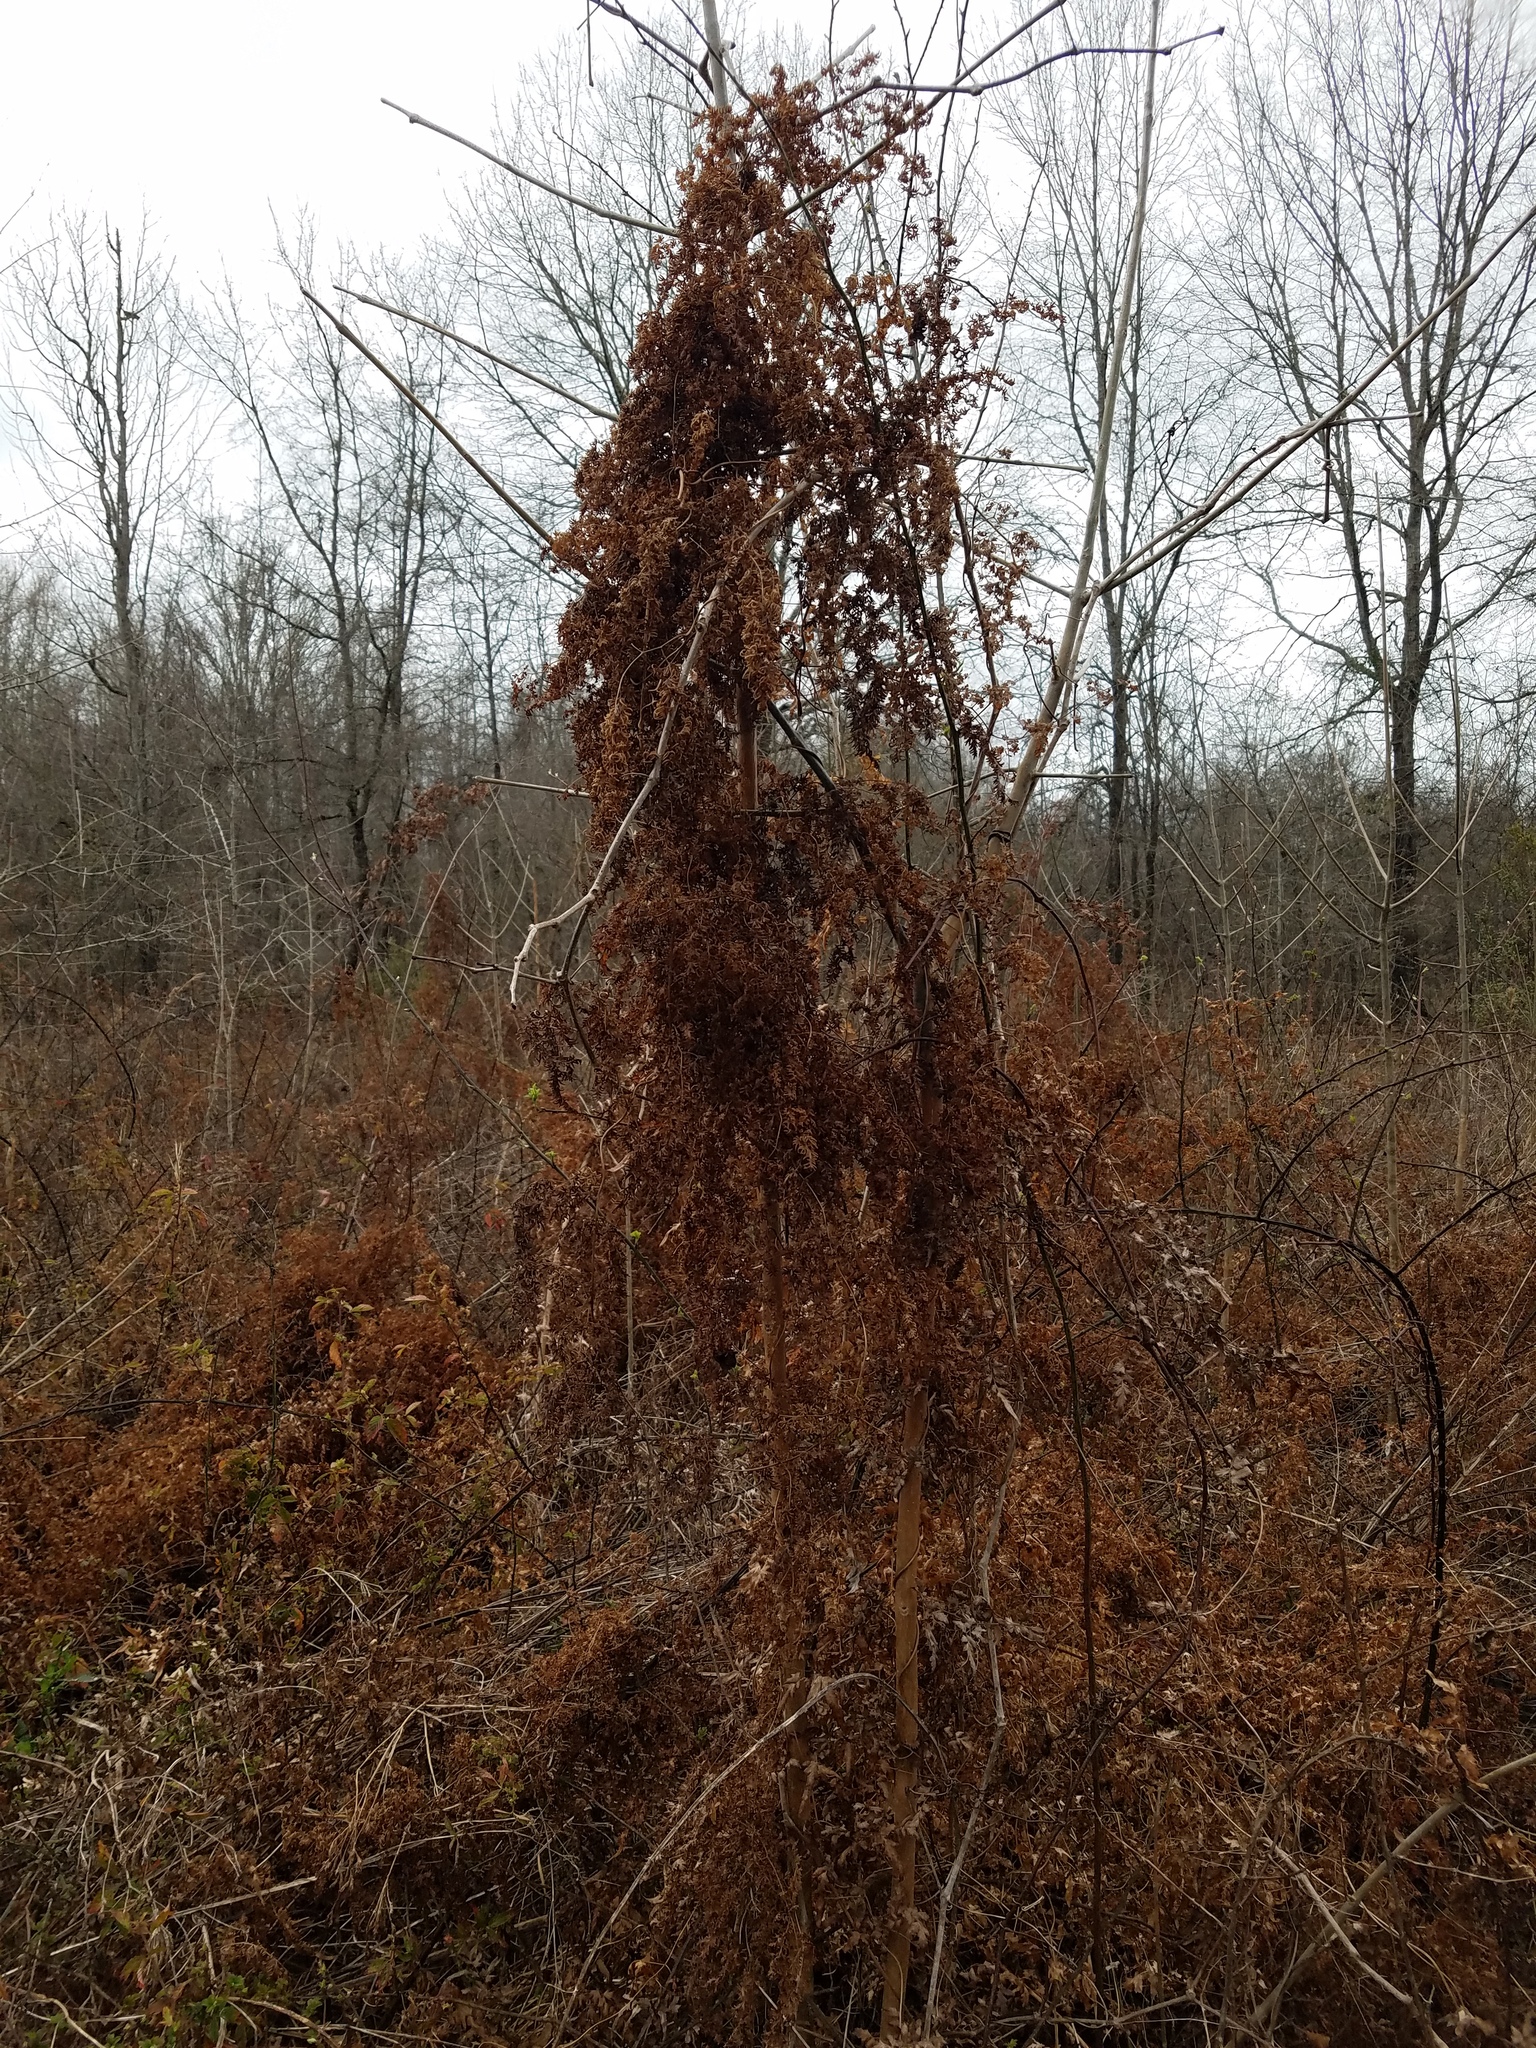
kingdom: Plantae
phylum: Tracheophyta
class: Polypodiopsida
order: Schizaeales
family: Lygodiaceae
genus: Lygodium
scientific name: Lygodium japonicum
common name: Japanese climbing fern
